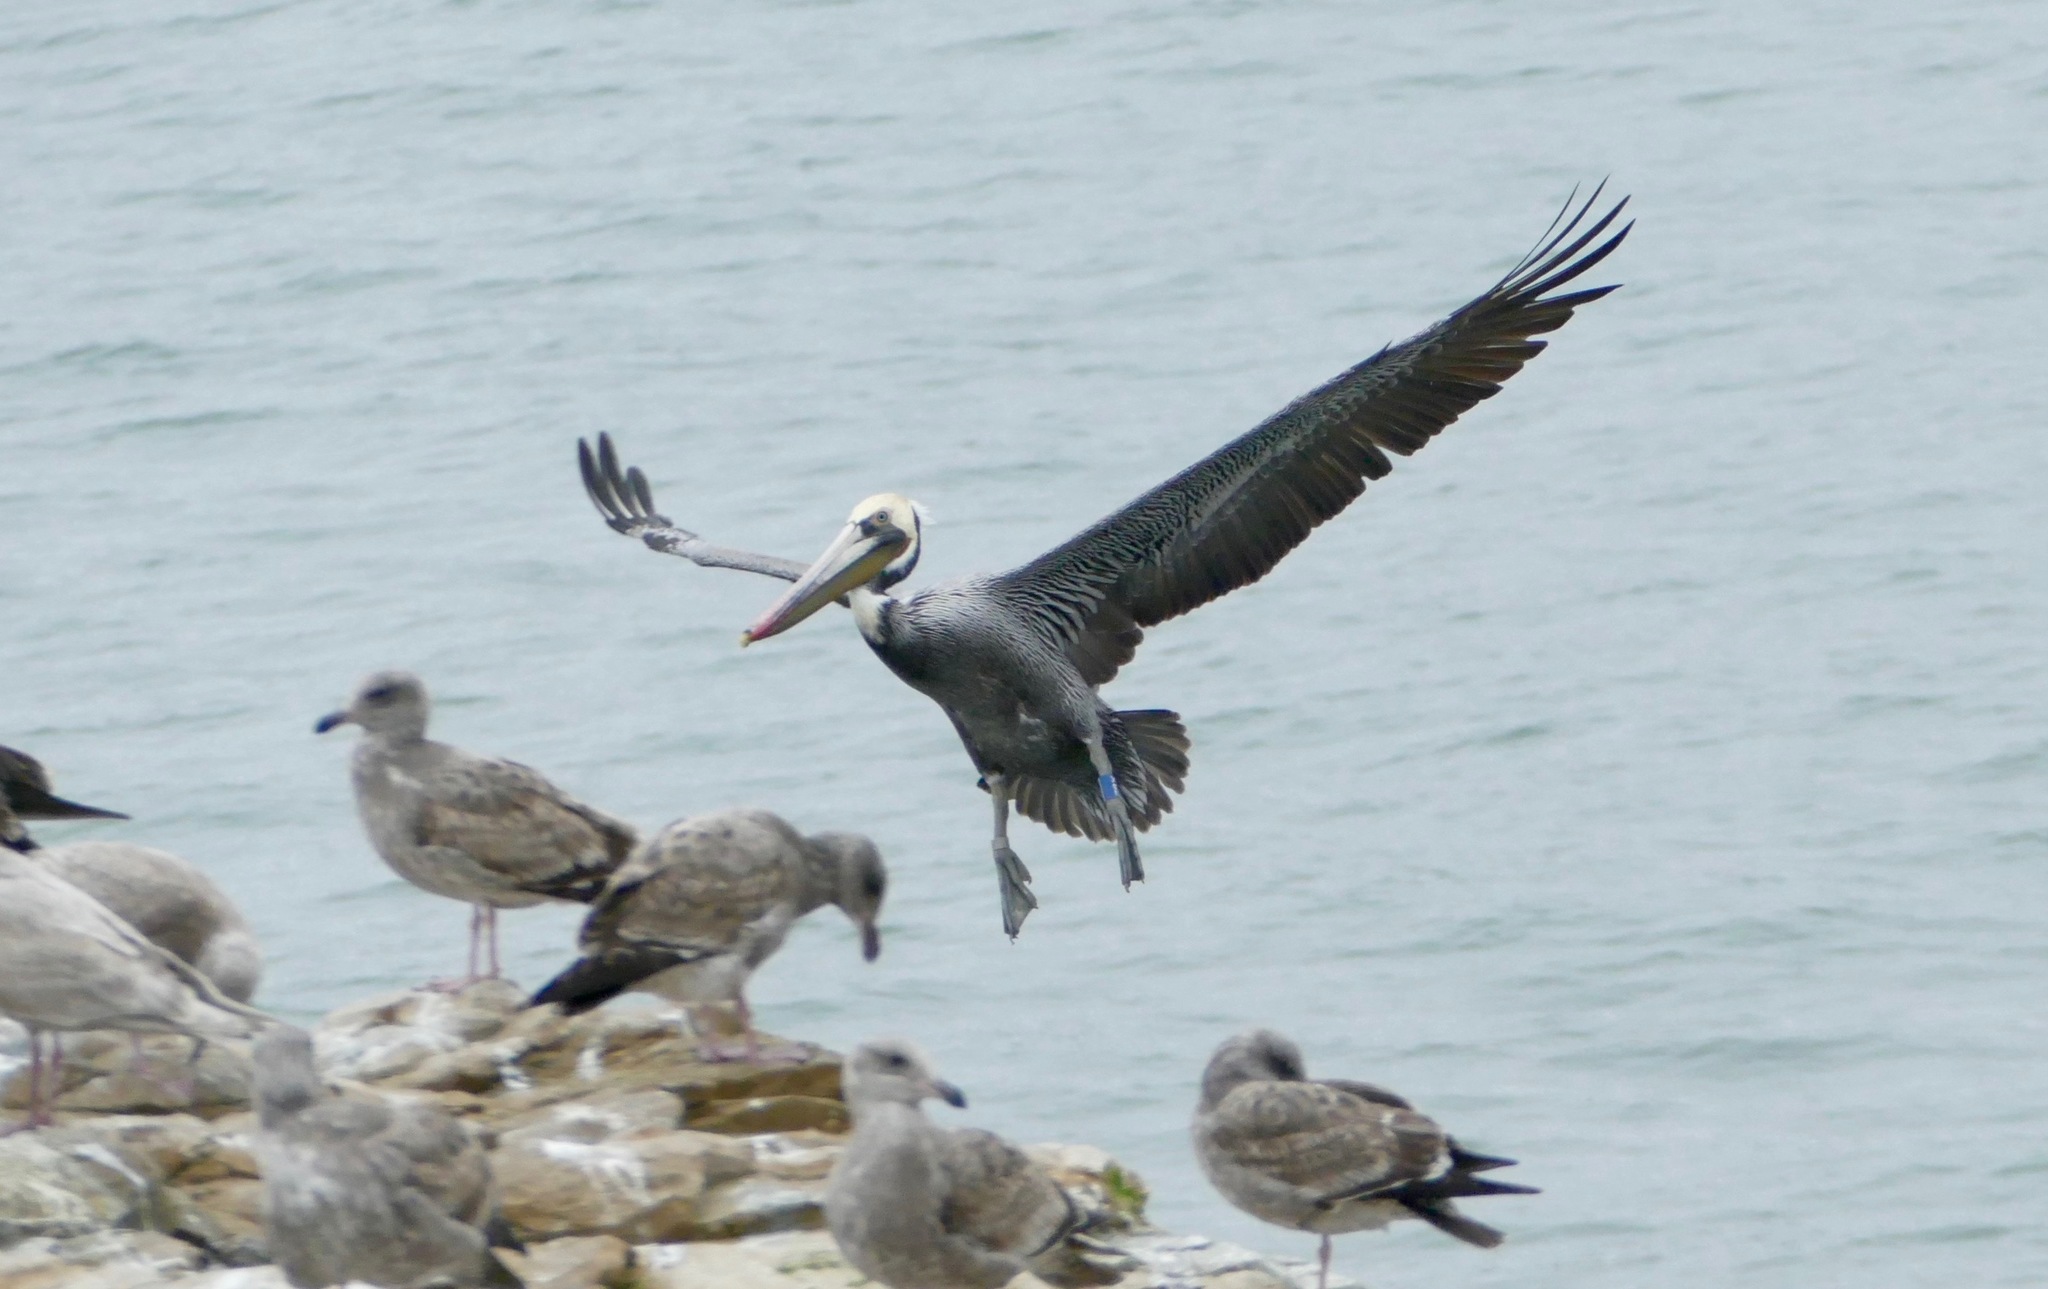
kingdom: Animalia
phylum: Chordata
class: Aves
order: Pelecaniformes
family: Pelecanidae
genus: Pelecanus
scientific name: Pelecanus occidentalis
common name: Brown pelican
